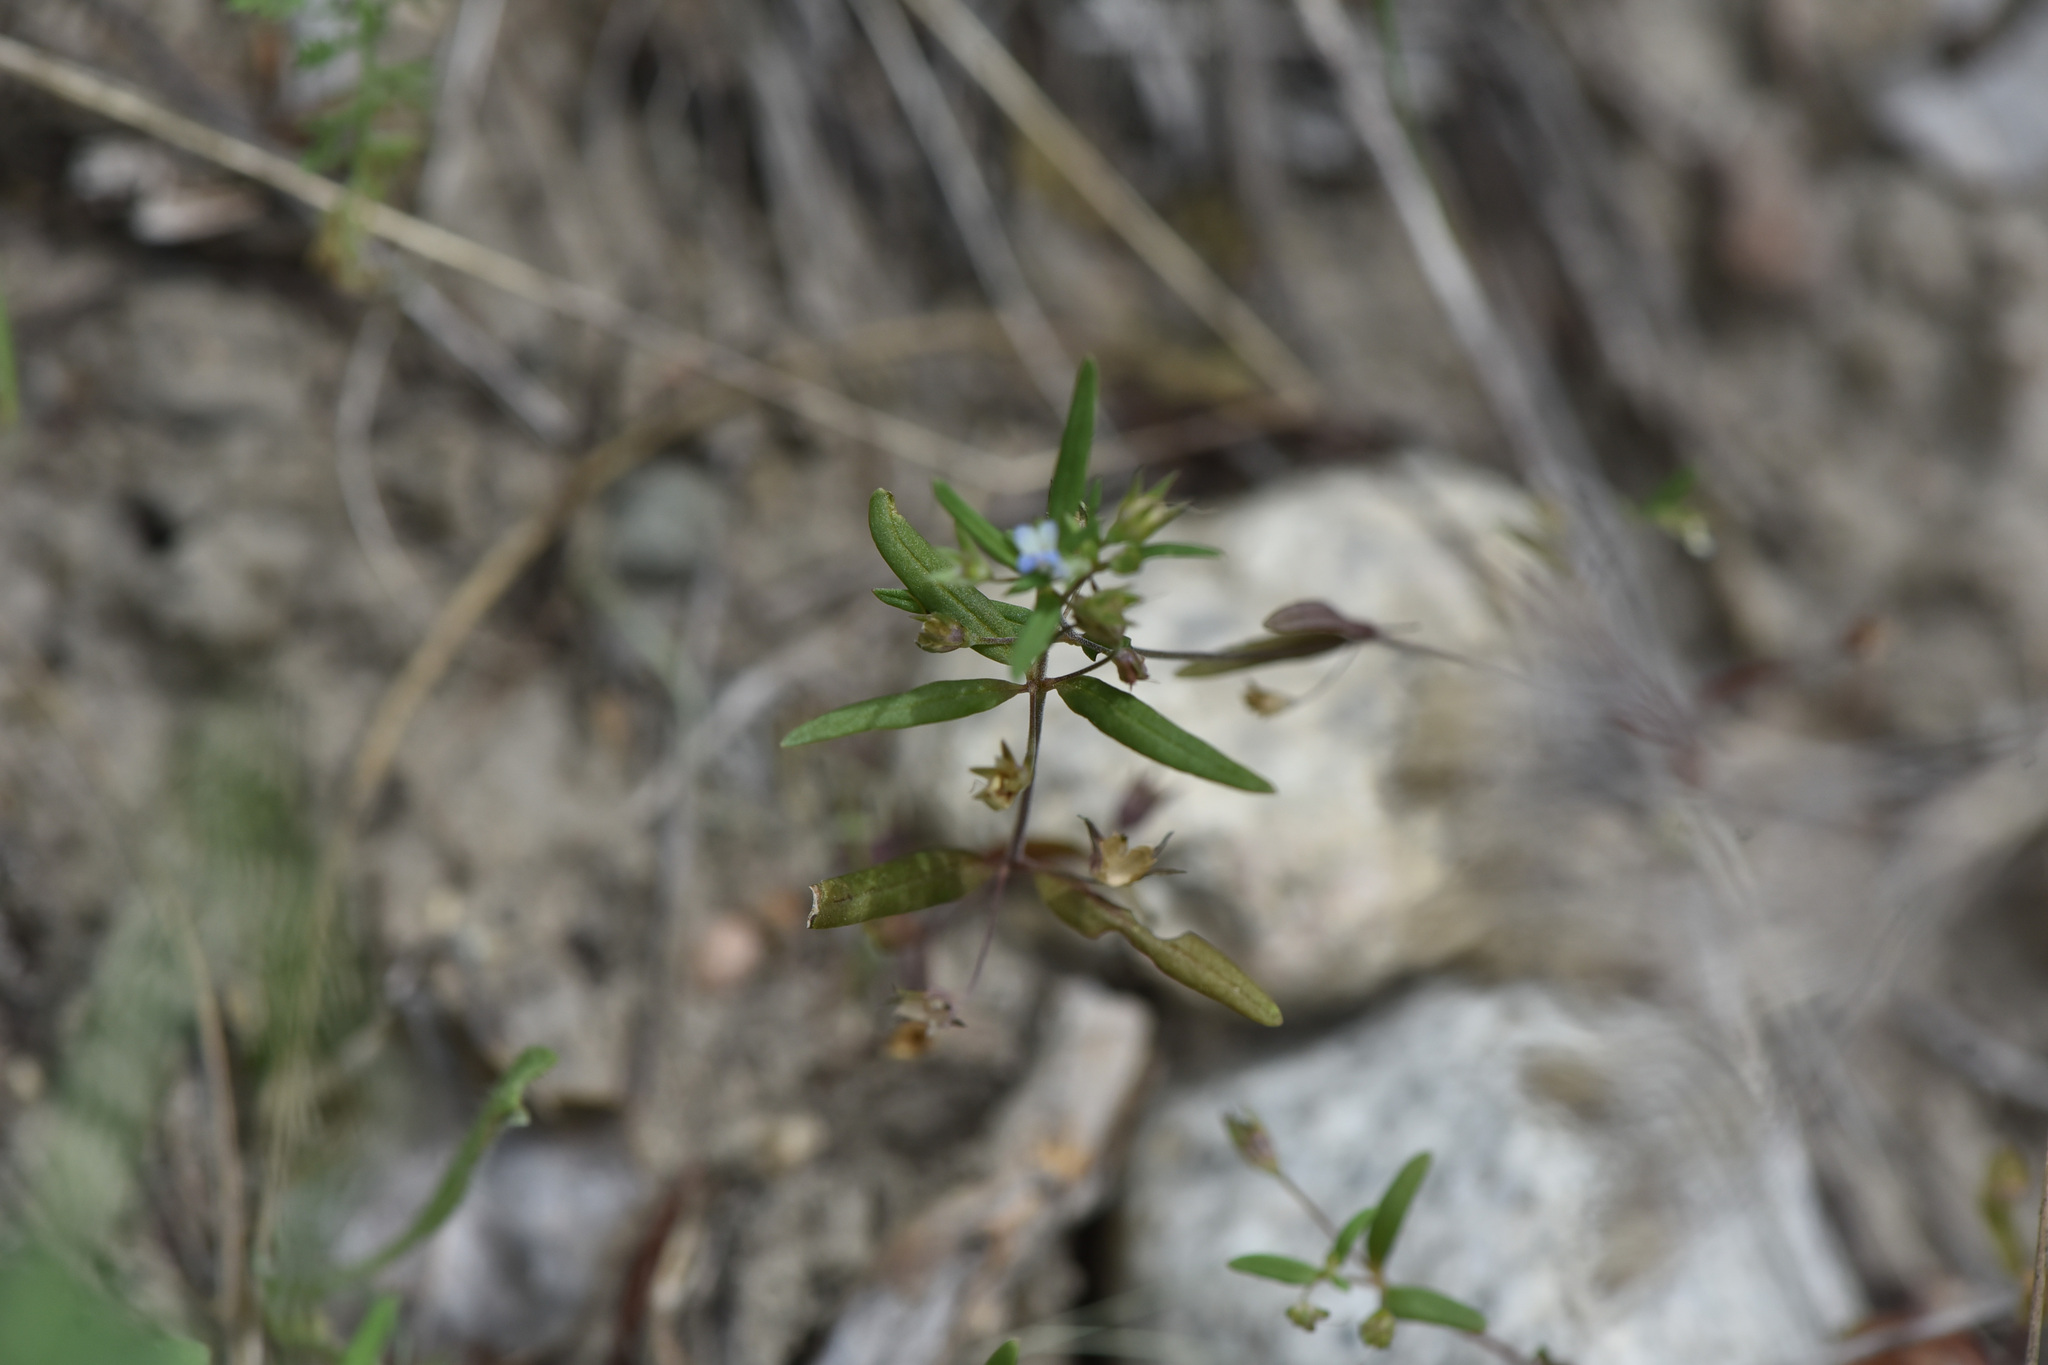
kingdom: Plantae
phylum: Tracheophyta
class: Magnoliopsida
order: Lamiales
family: Plantaginaceae
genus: Collinsia
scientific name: Collinsia parviflora
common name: Blue-lips
